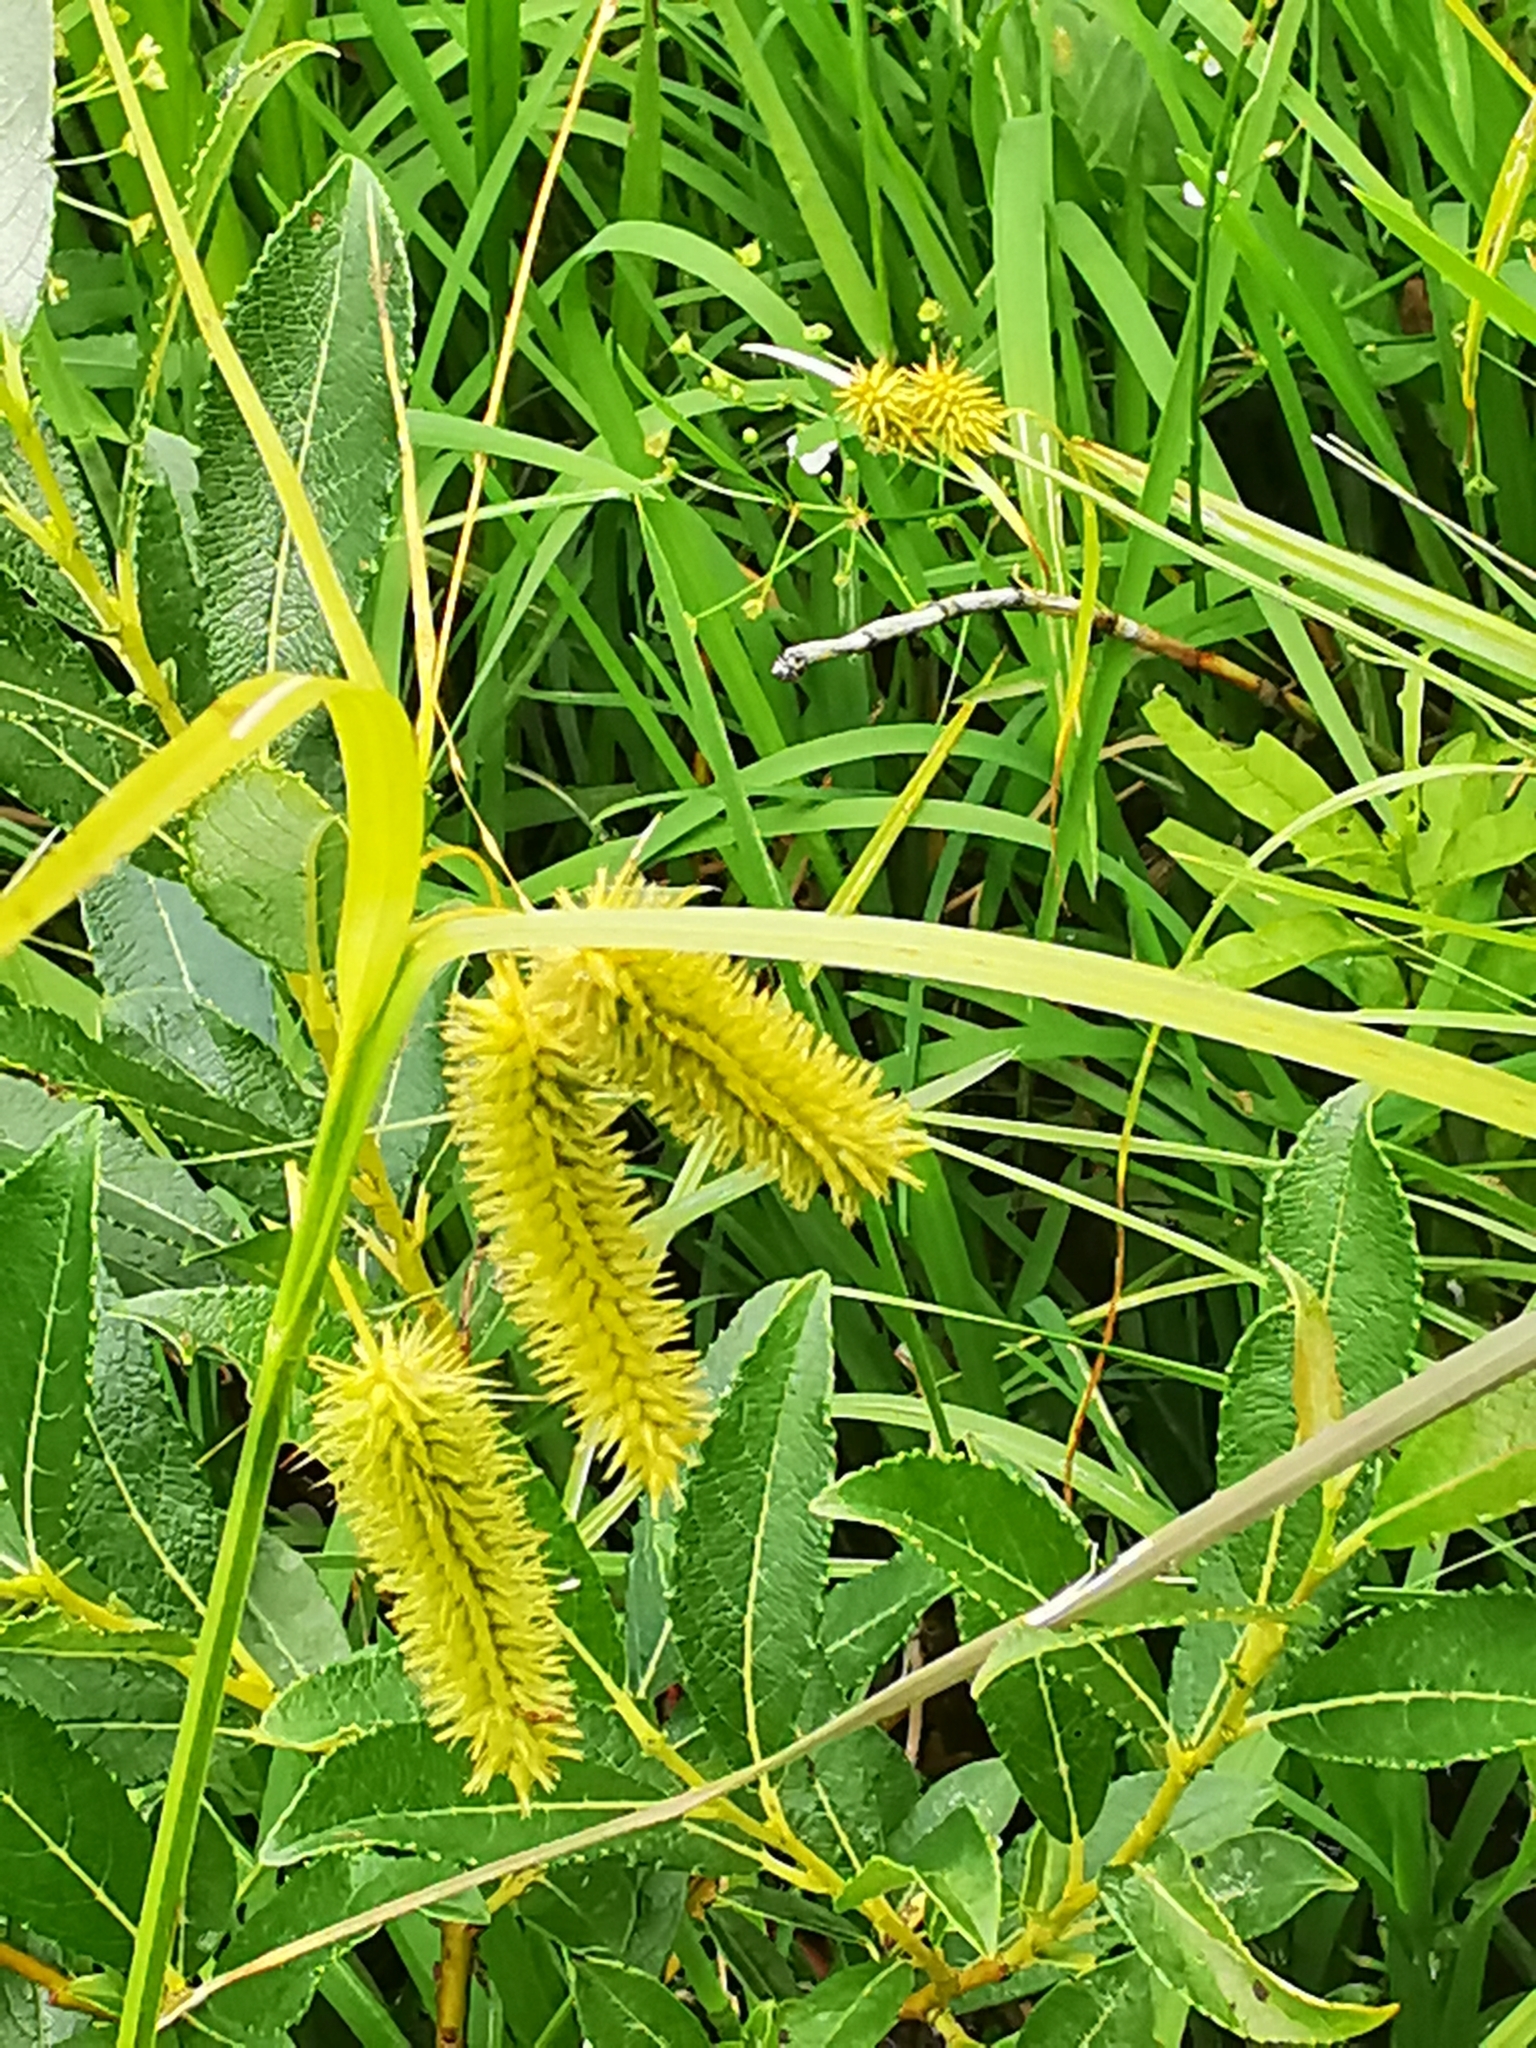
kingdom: Plantae
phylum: Tracheophyta
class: Liliopsida
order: Poales
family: Cyperaceae
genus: Carex
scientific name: Carex pseudocyperus
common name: Cyperus sedge
